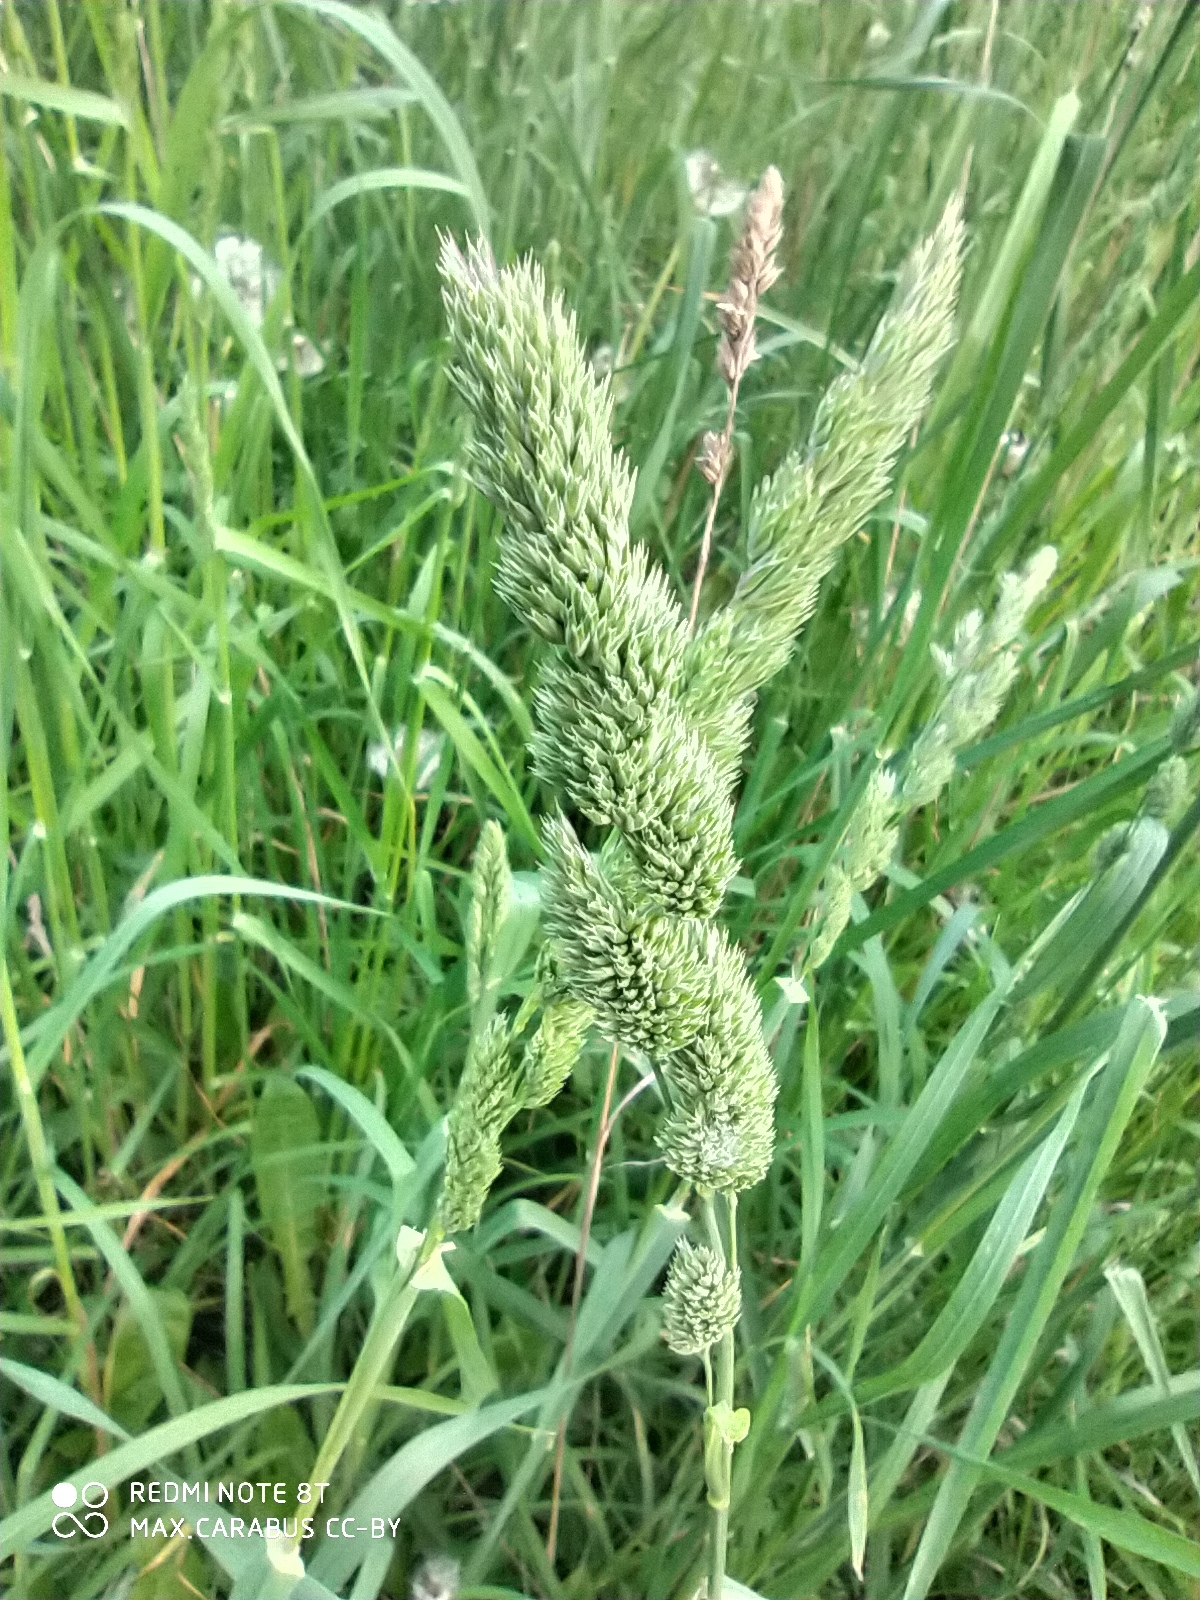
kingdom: Plantae
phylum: Tracheophyta
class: Liliopsida
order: Poales
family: Poaceae
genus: Dactylis
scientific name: Dactylis glomerata
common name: Orchardgrass
